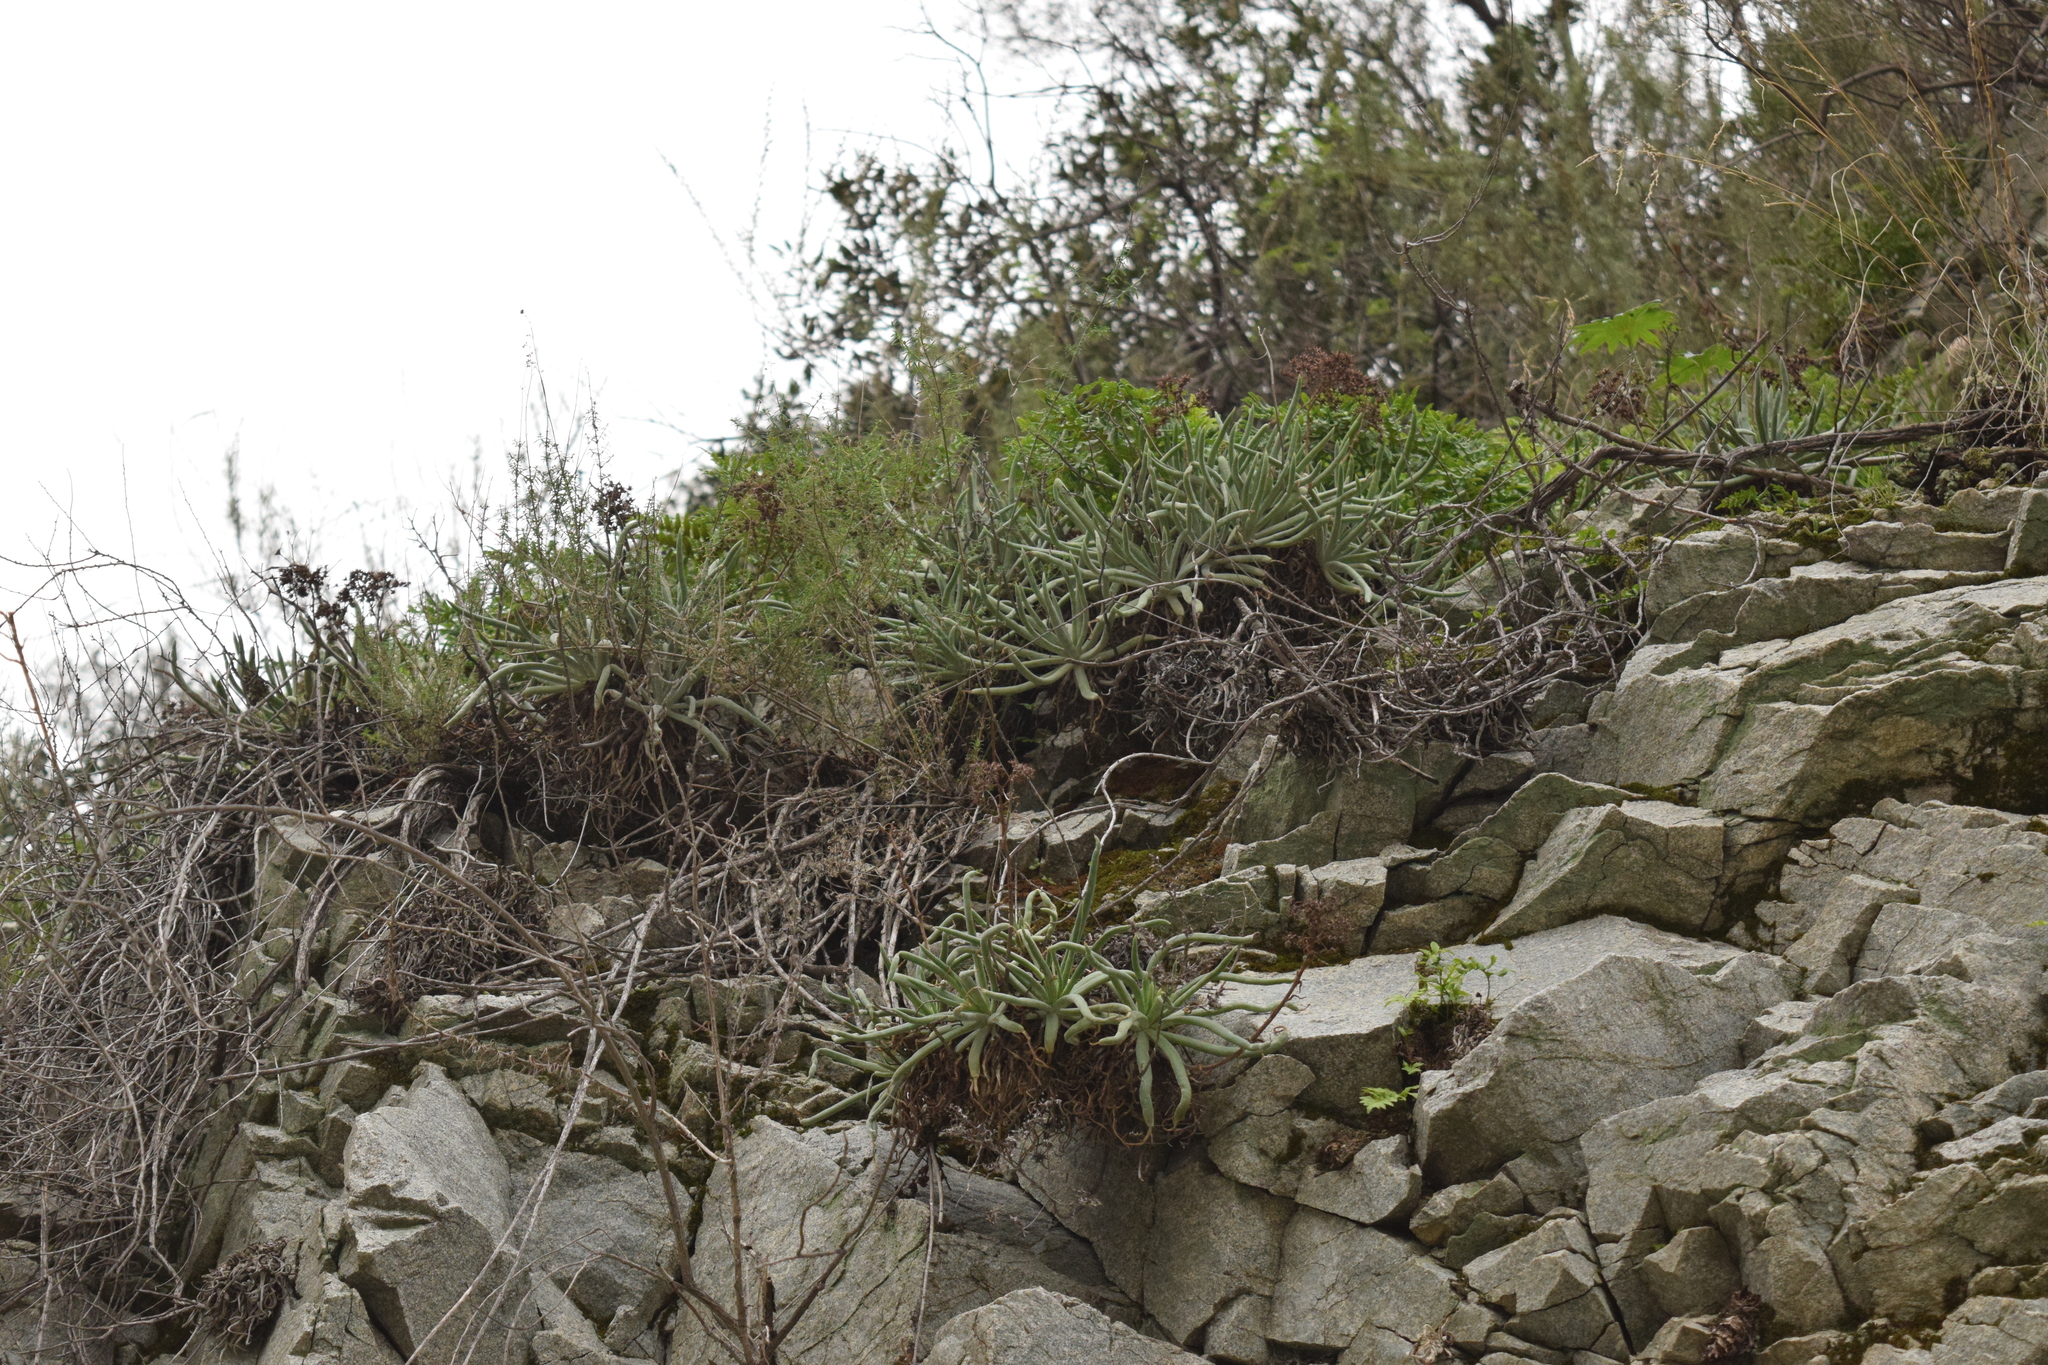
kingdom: Plantae
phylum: Tracheophyta
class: Magnoliopsida
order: Saxifragales
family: Crassulaceae
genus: Dudleya
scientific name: Dudleya densiflora
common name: San gabriel mountains dudleya
